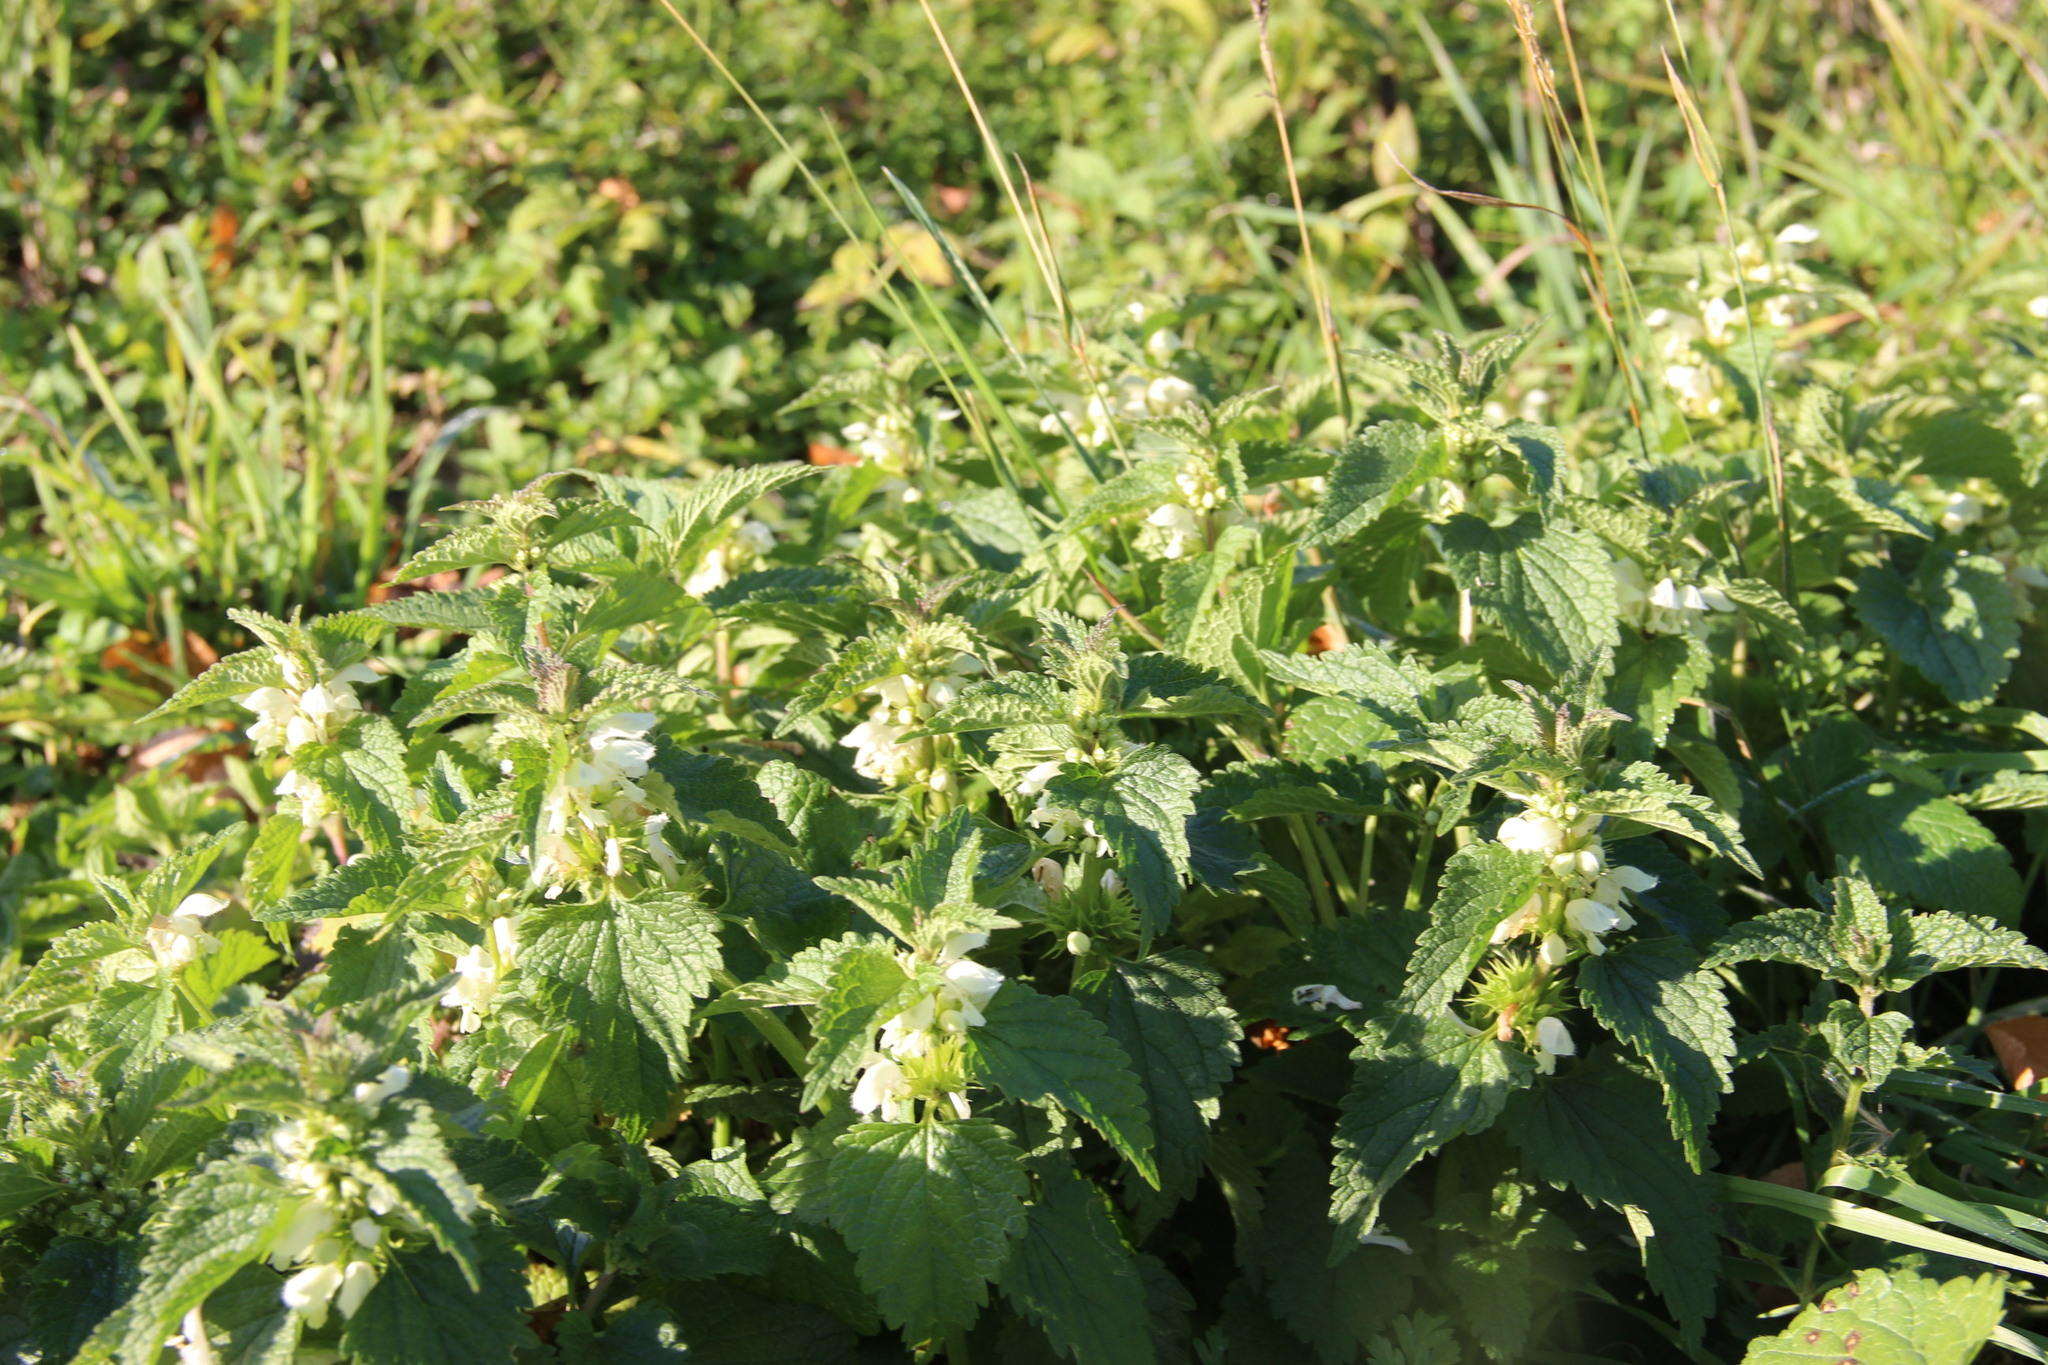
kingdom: Plantae
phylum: Tracheophyta
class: Magnoliopsida
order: Lamiales
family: Lamiaceae
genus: Lamium
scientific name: Lamium album
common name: White dead-nettle
